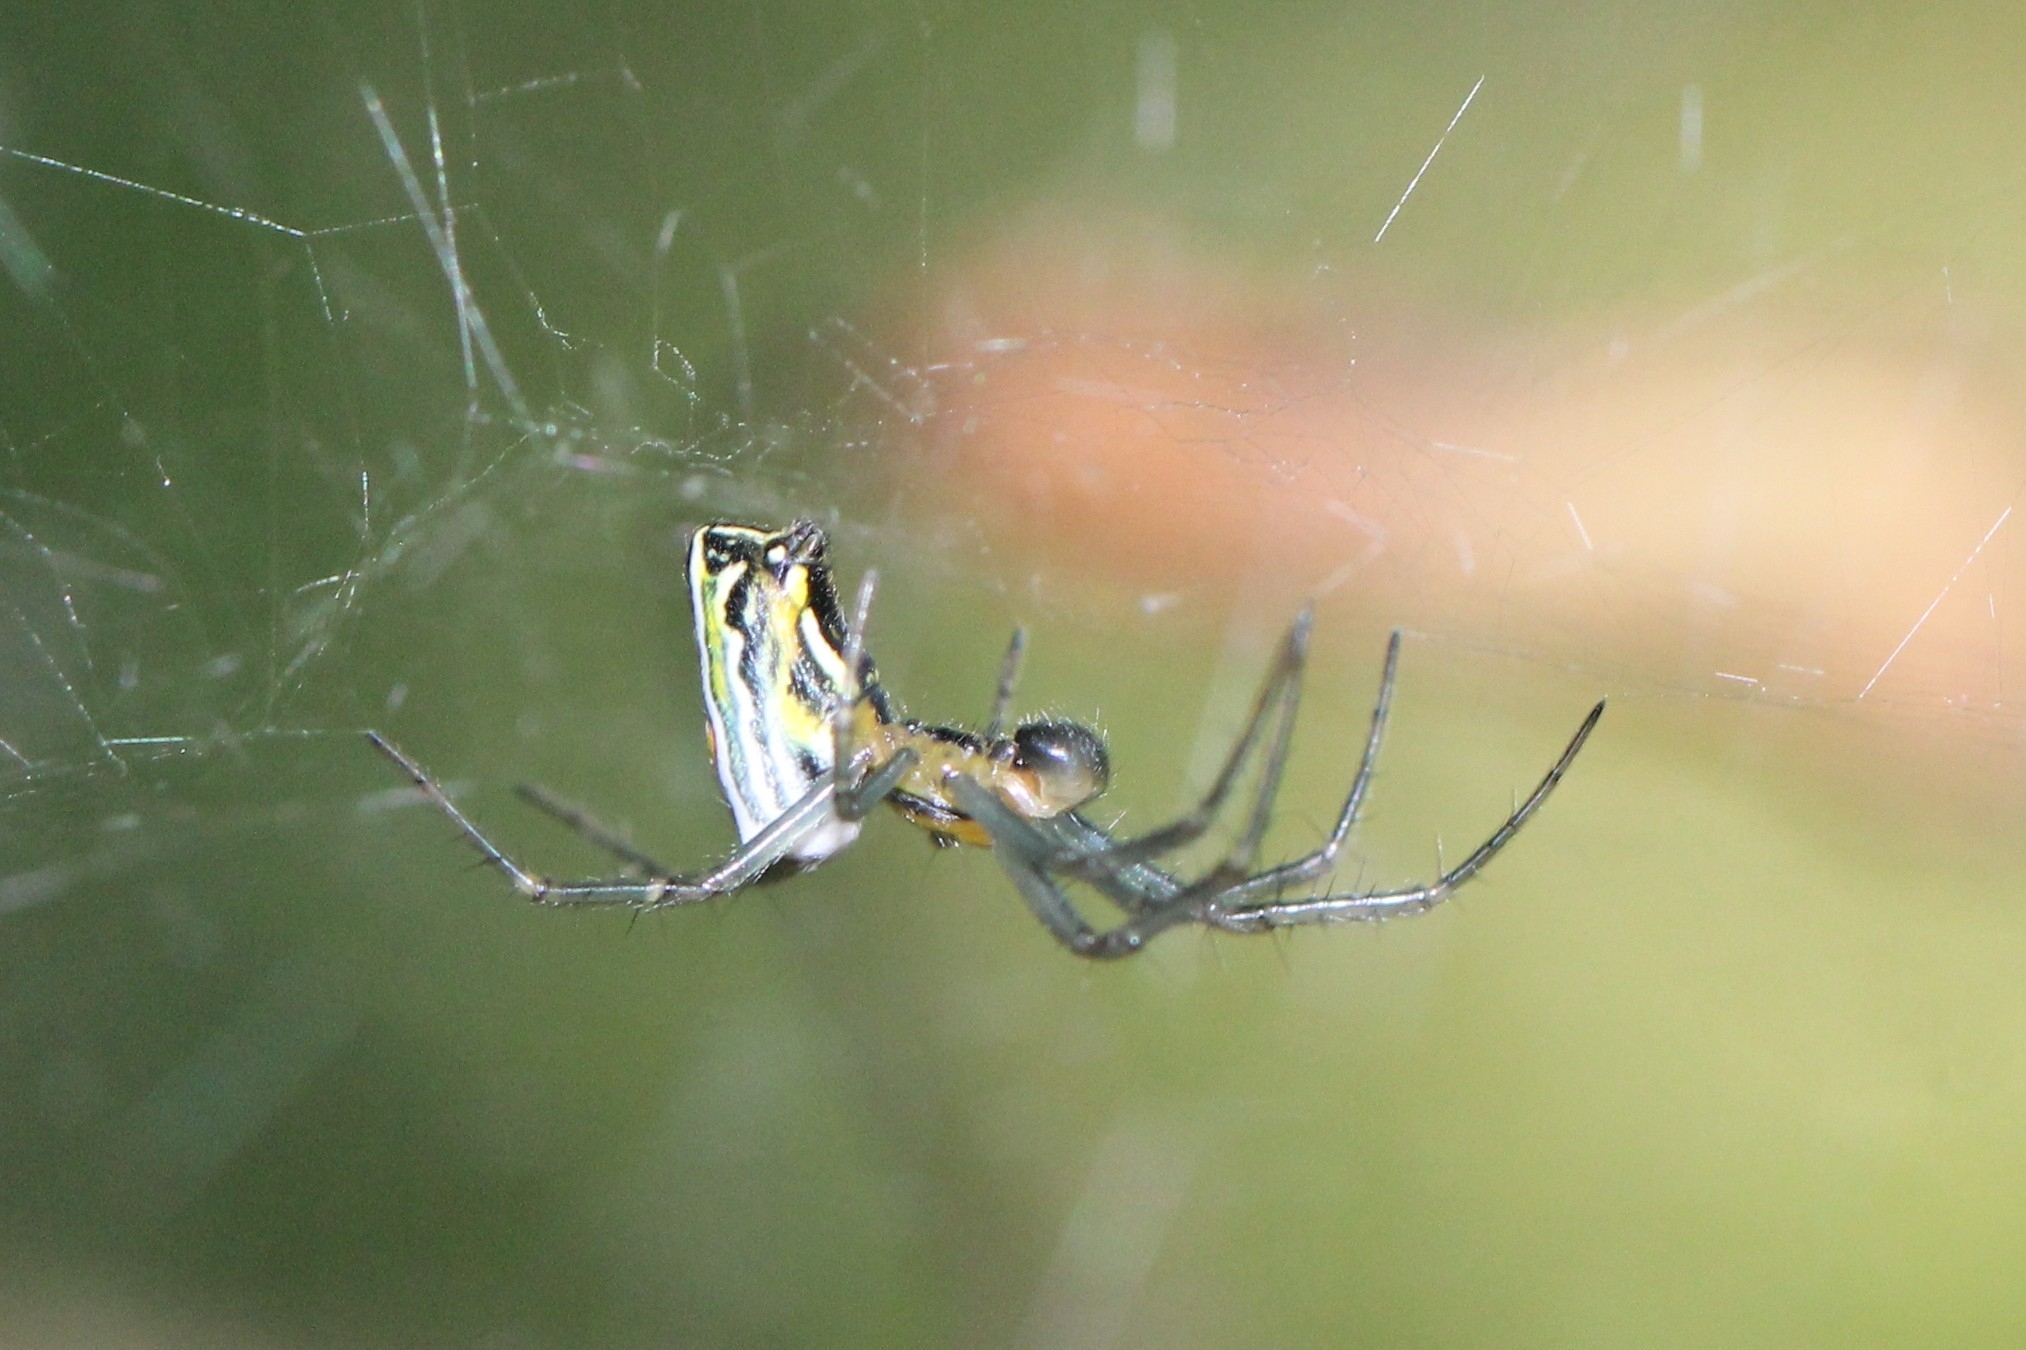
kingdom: Animalia
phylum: Arthropoda
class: Arachnida
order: Araneae
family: Araneidae
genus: Mecynogea
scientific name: Mecynogea lemniscata
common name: Orb weavers
